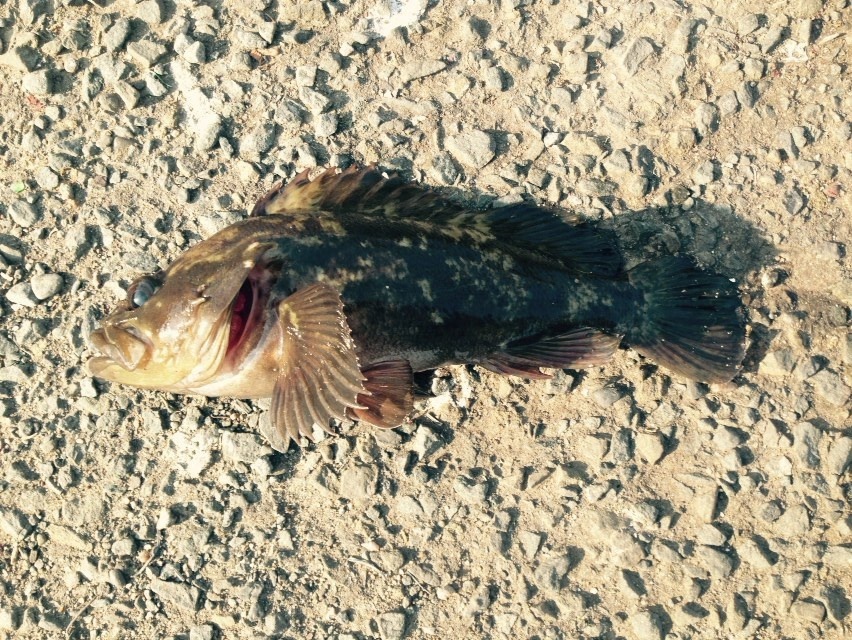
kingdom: Animalia
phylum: Chordata
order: Scorpaeniformes
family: Sebastidae
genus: Sebastes
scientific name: Sebastes rastrelliger
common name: Grass rockfish
